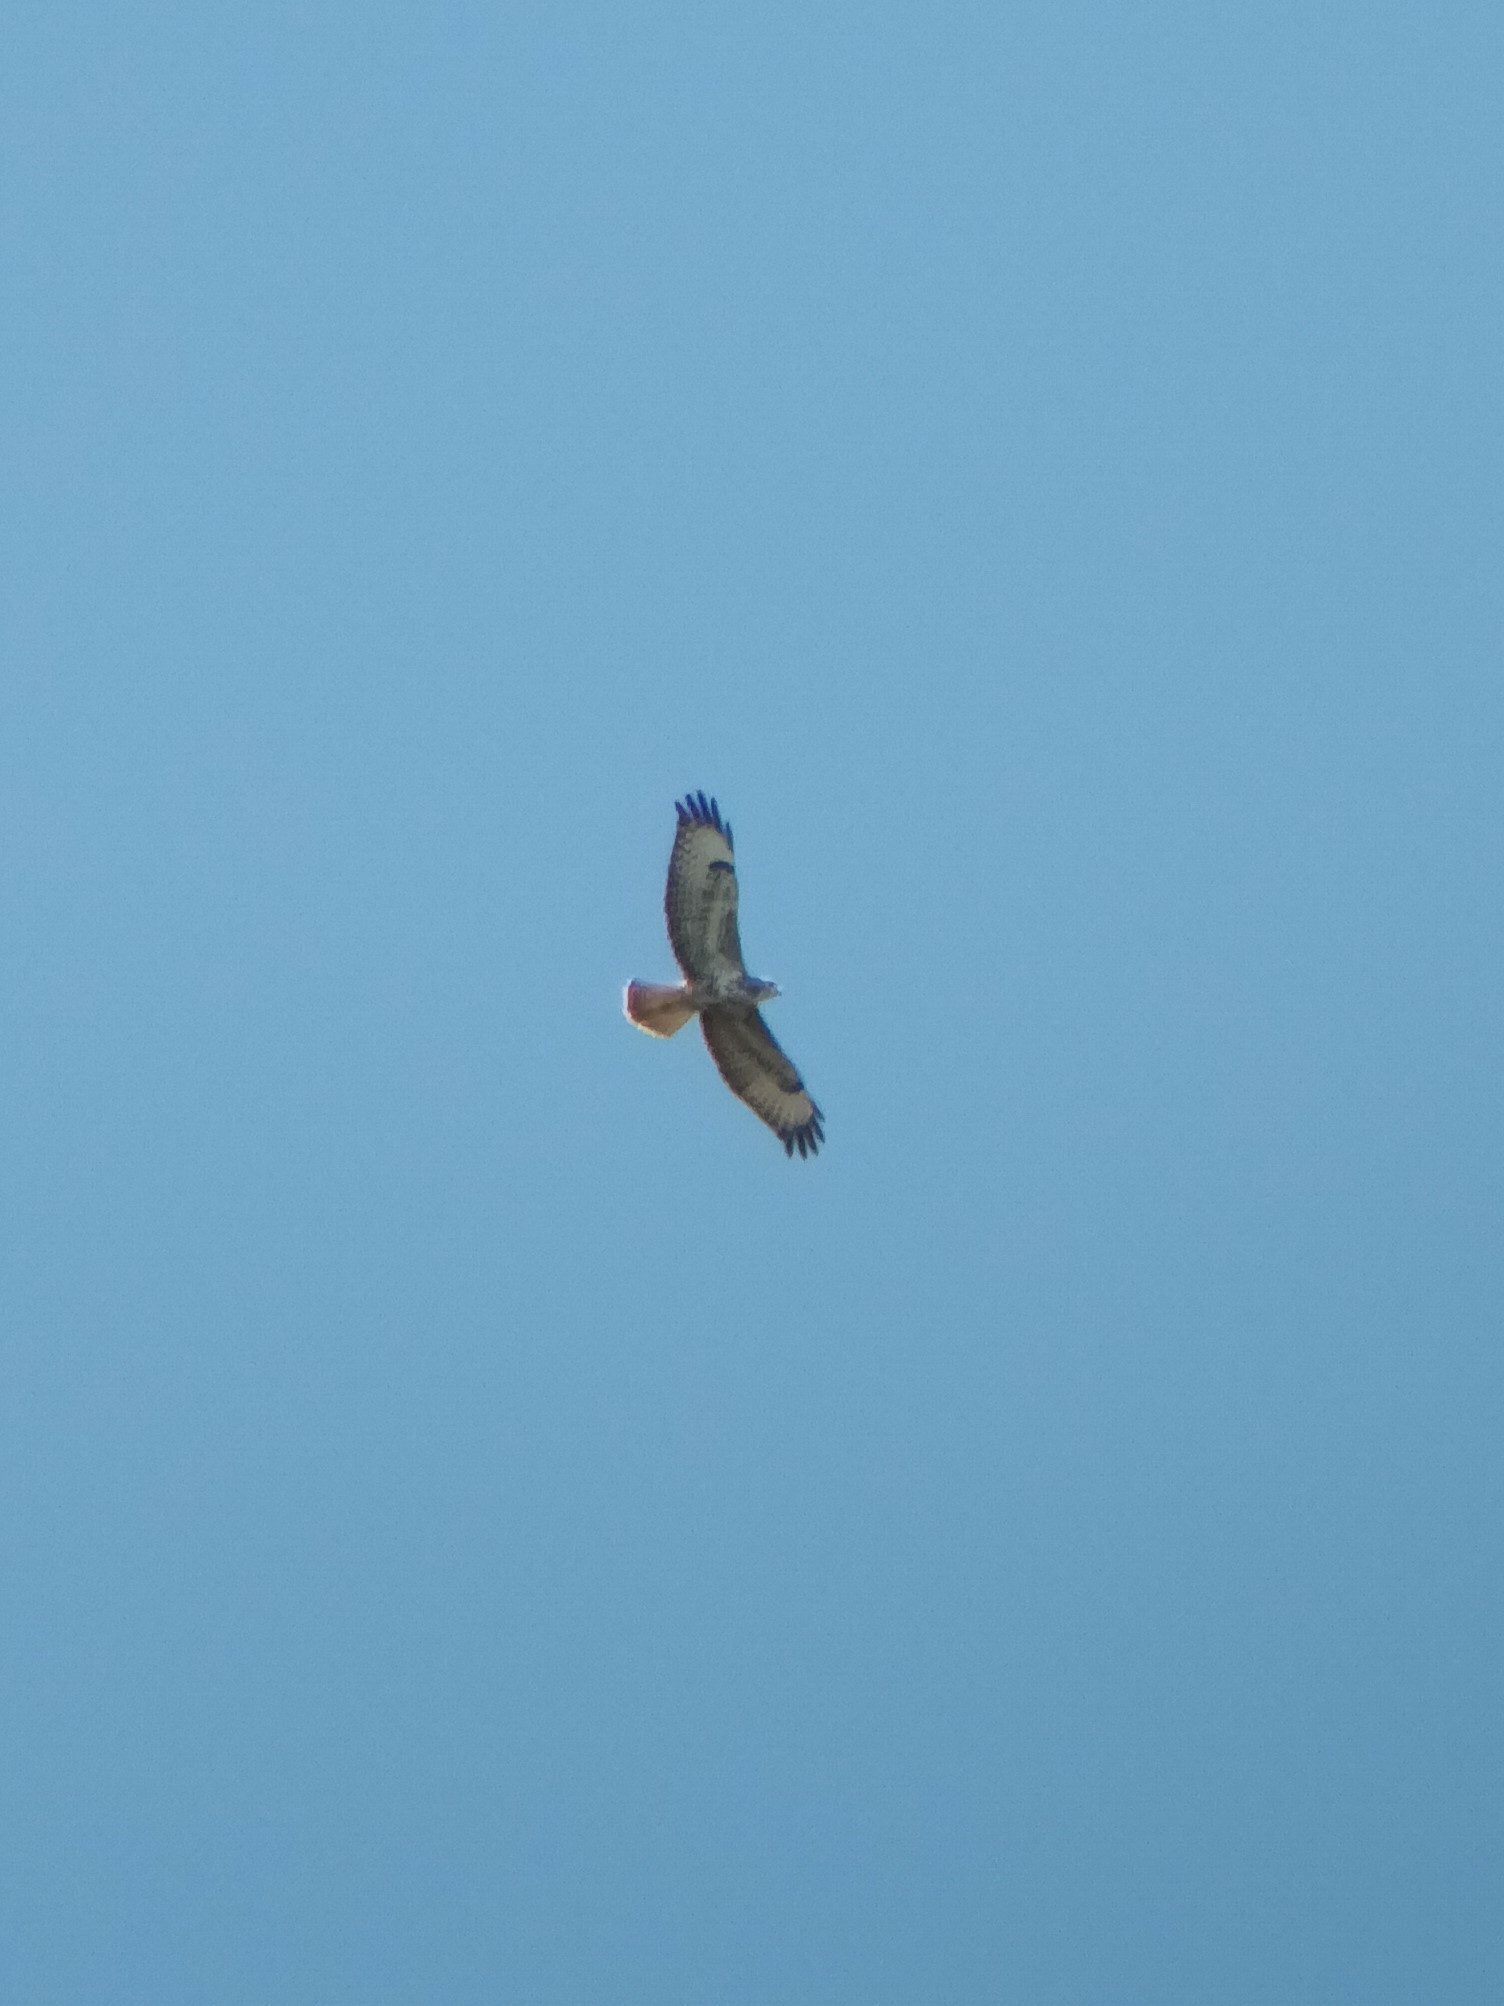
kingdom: Animalia
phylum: Chordata
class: Aves
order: Accipitriformes
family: Accipitridae
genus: Buteo
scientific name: Buteo buteo
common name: Common buzzard
